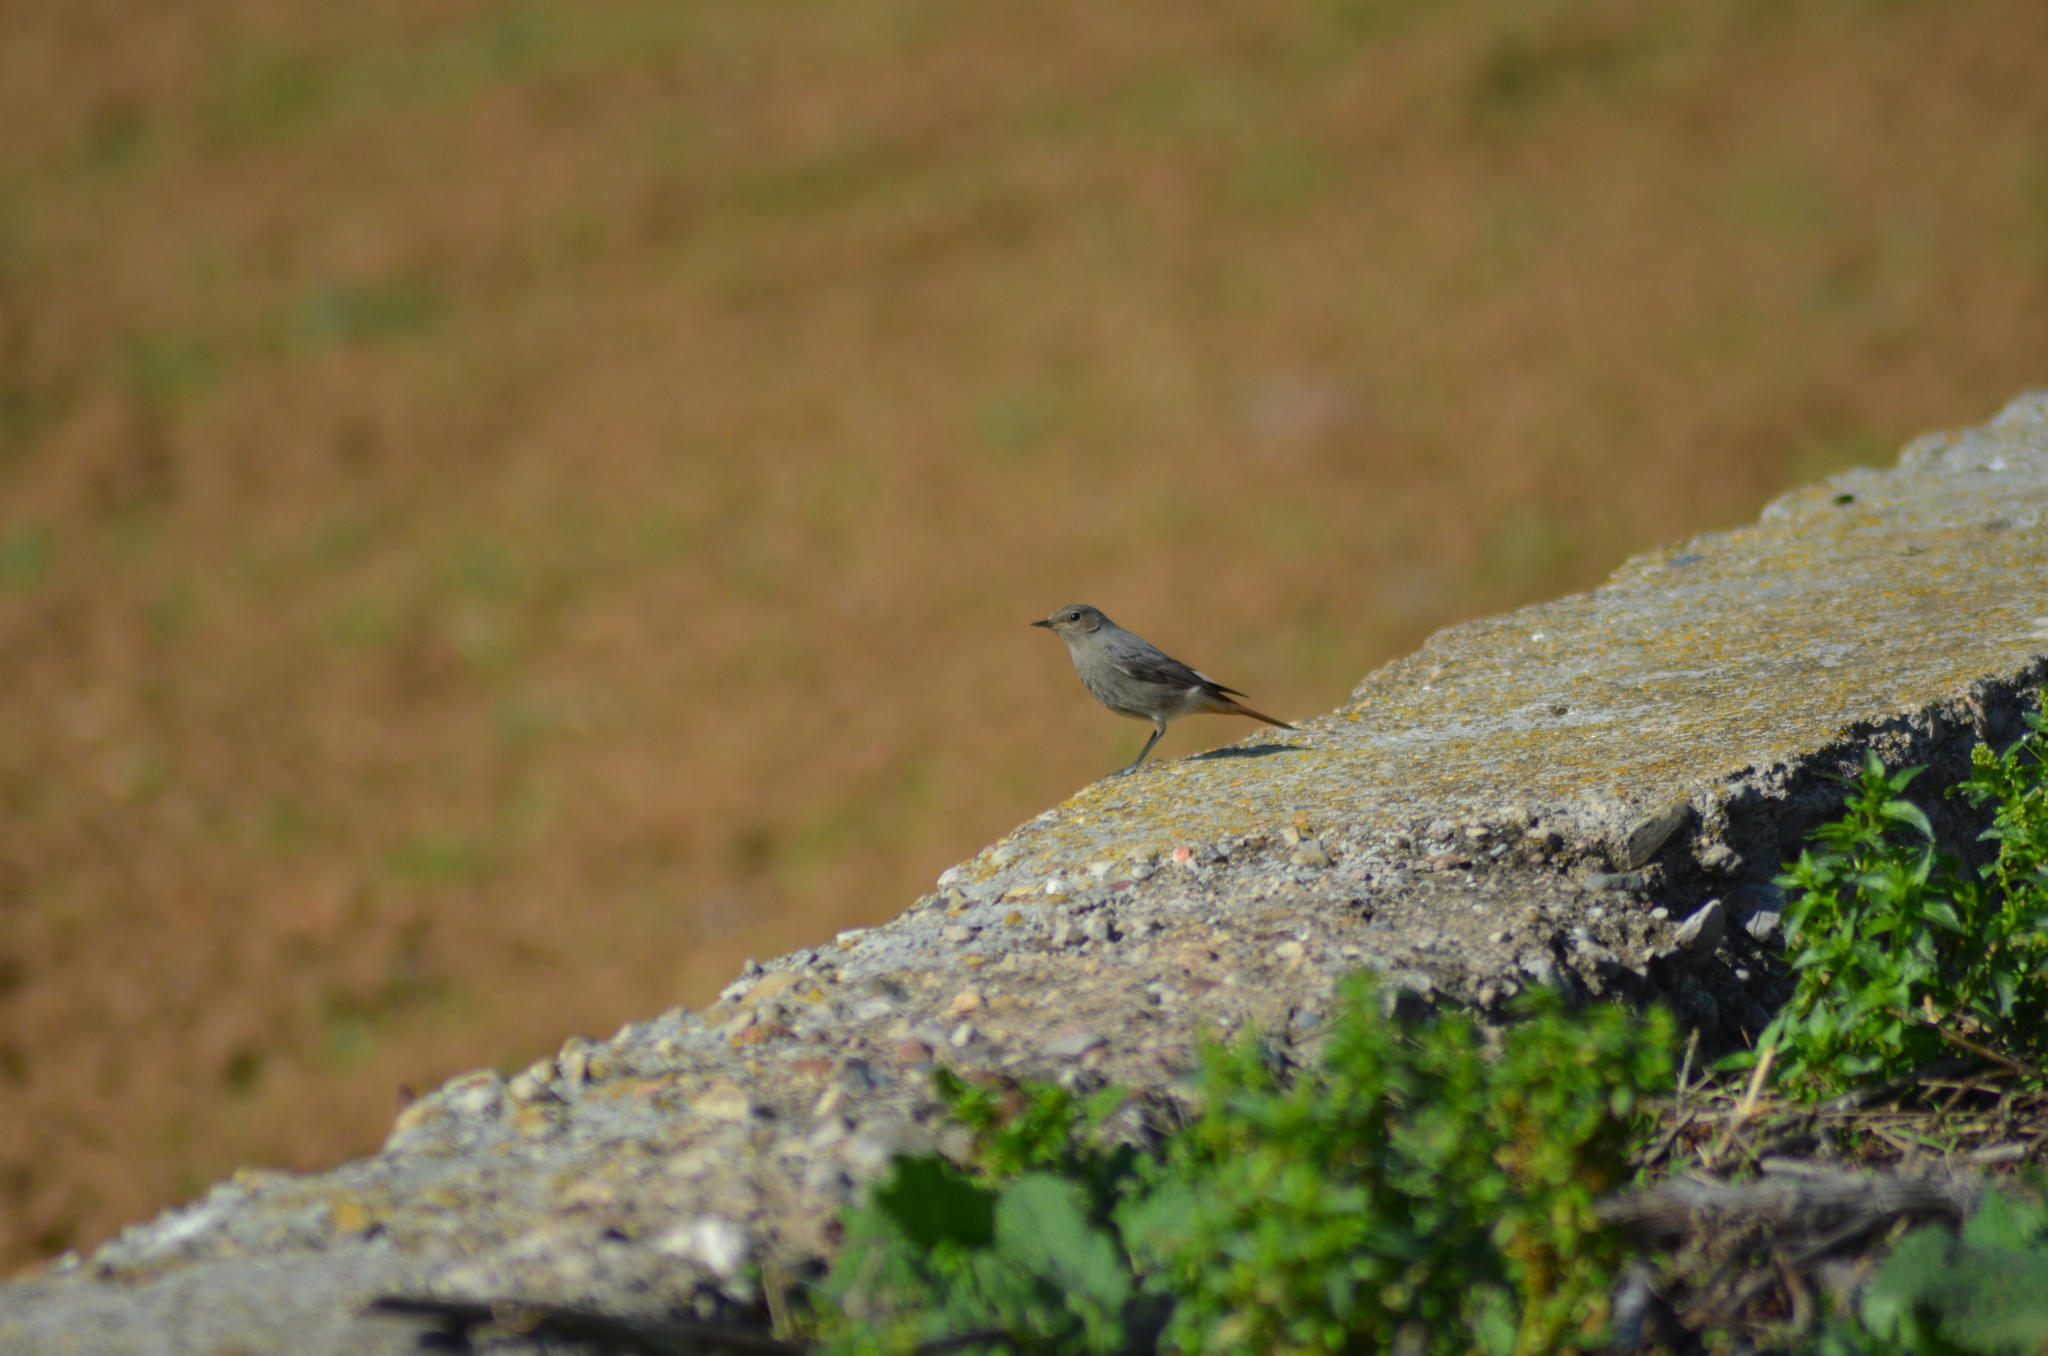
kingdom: Animalia
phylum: Chordata
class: Aves
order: Passeriformes
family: Muscicapidae
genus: Phoenicurus
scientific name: Phoenicurus ochruros
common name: Black redstart
